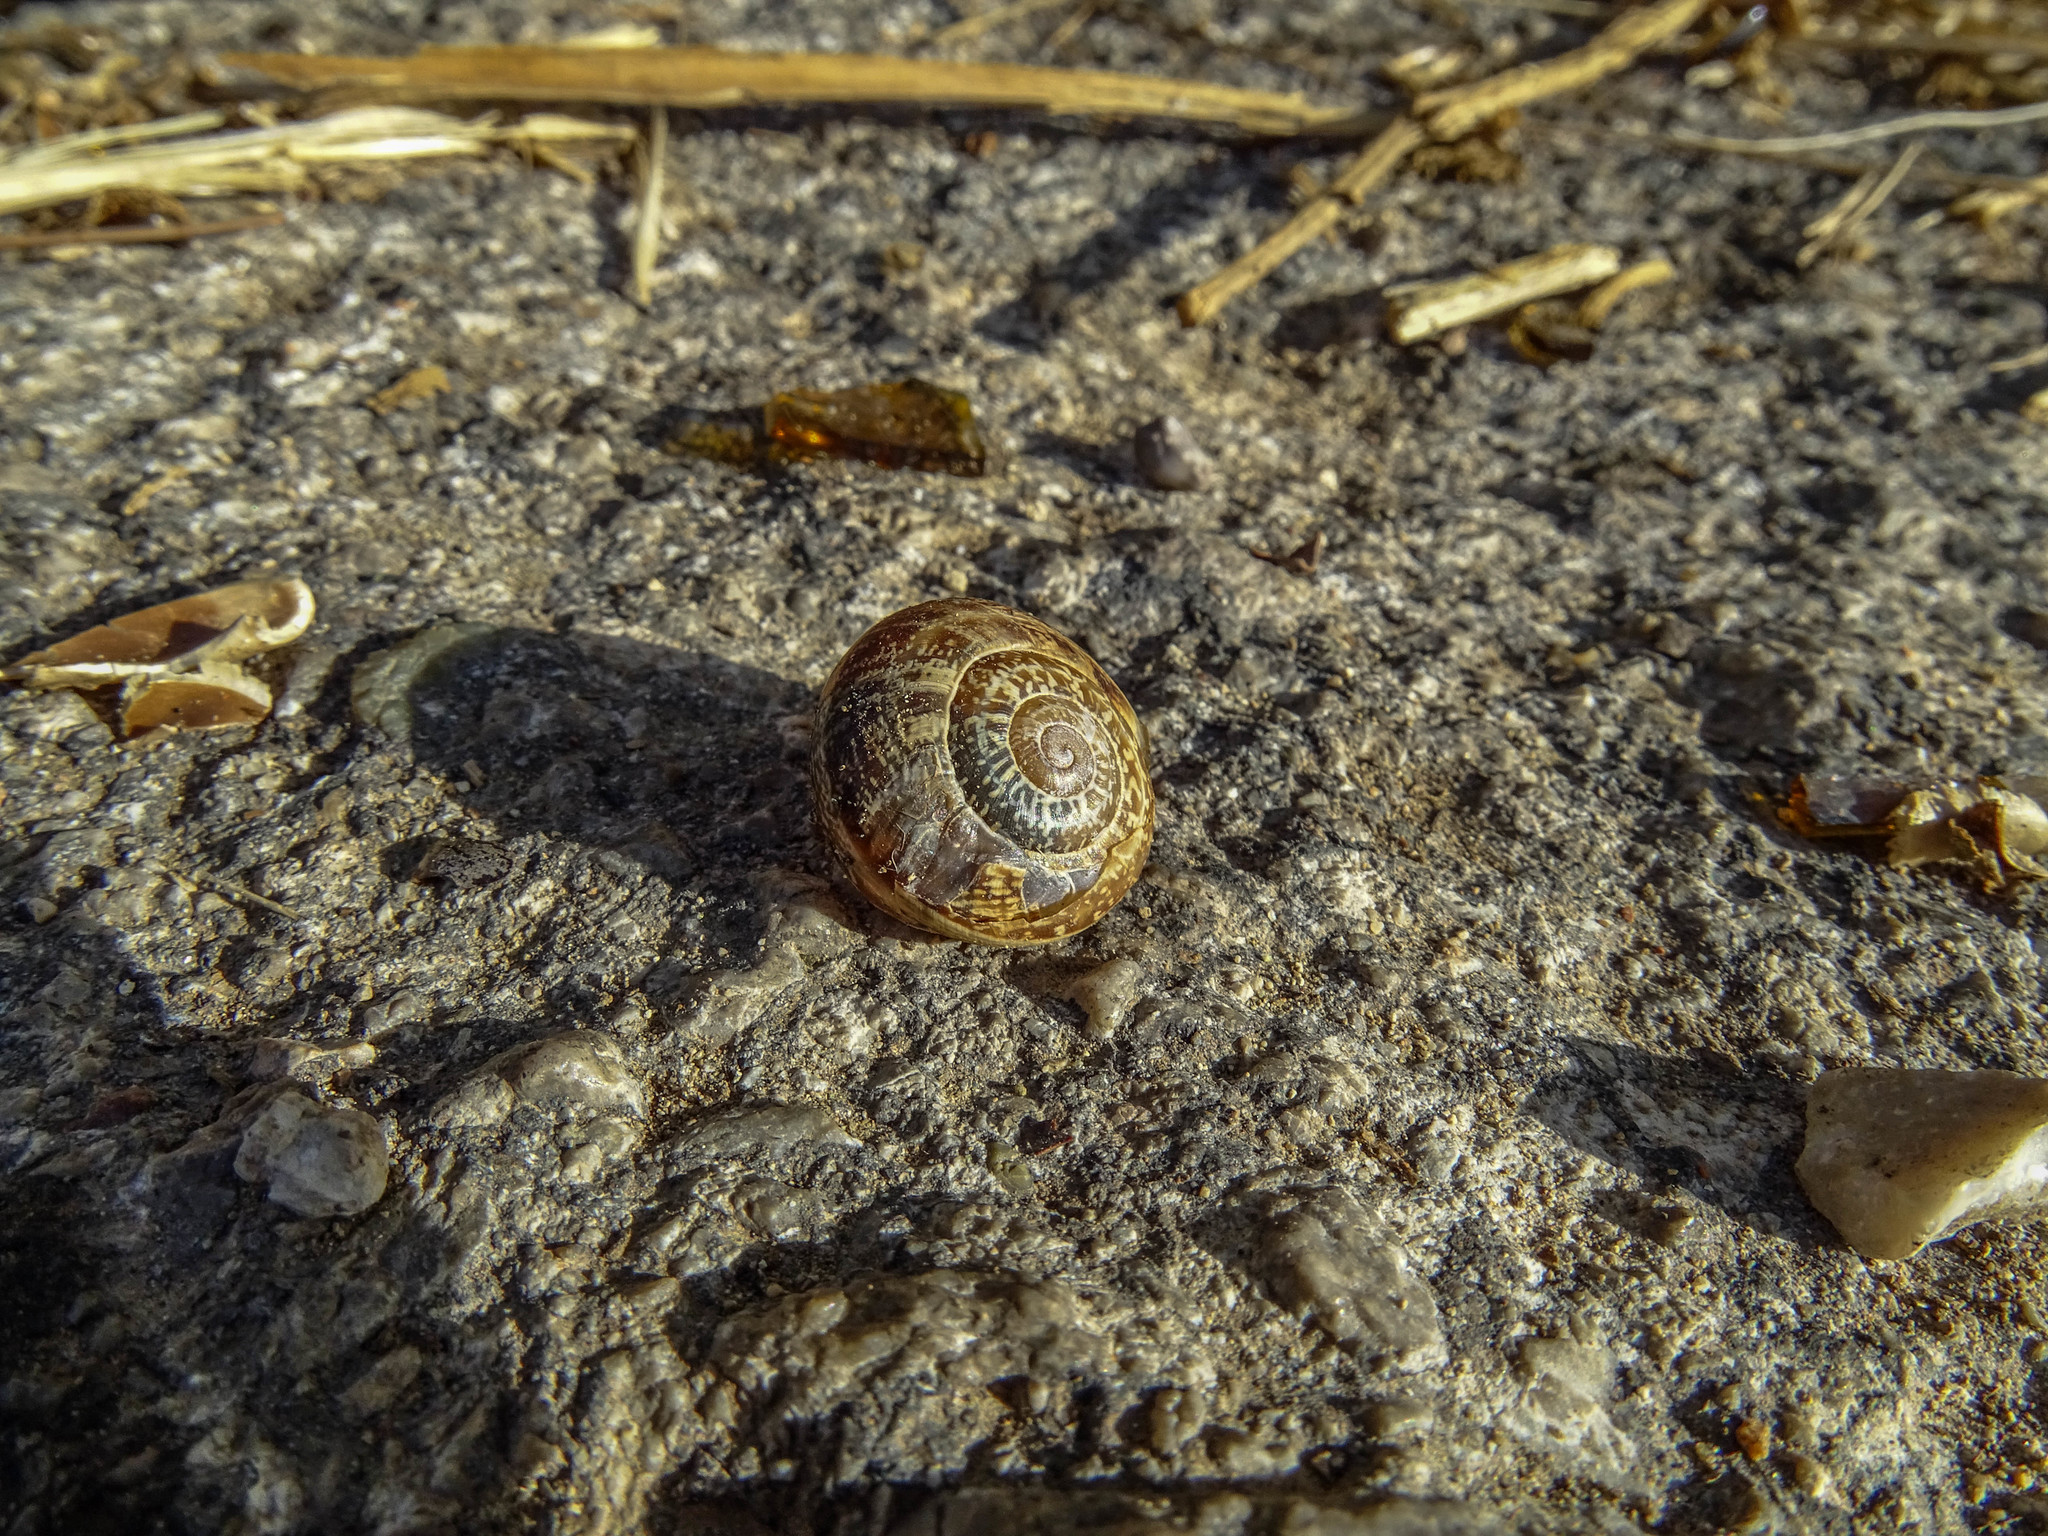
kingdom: Animalia
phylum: Mollusca
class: Gastropoda
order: Stylommatophora
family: Helicidae
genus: Eobania
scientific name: Eobania vermiculata
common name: Chocolateband snail
